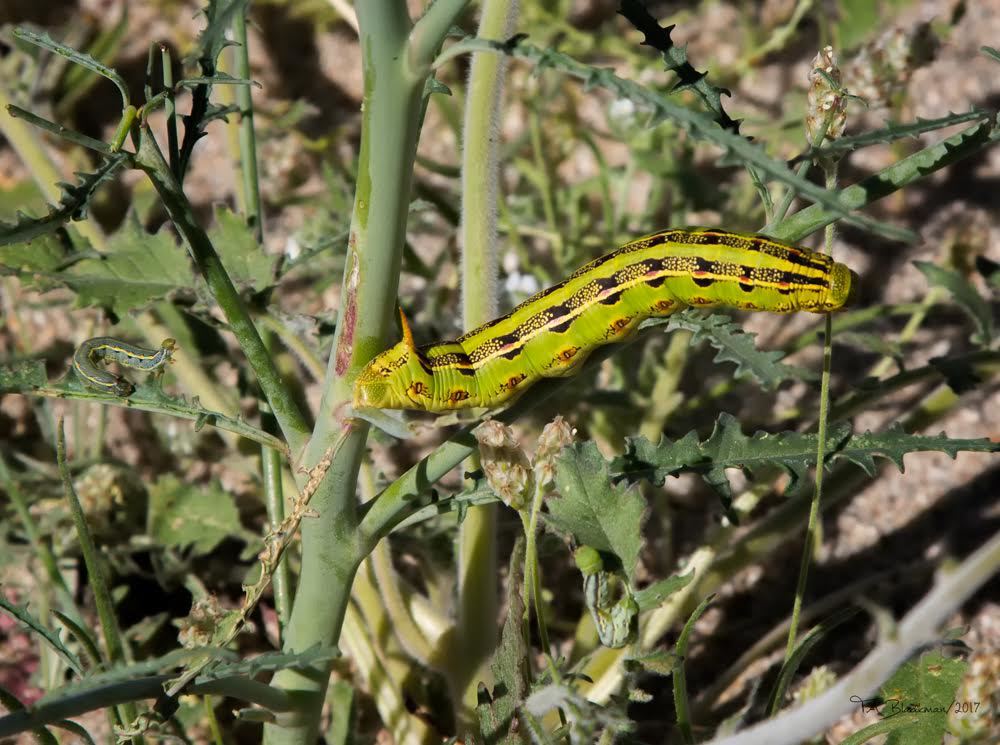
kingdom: Animalia
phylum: Arthropoda
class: Insecta
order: Lepidoptera
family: Sphingidae
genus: Hyles
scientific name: Hyles lineata
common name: White-lined sphinx
